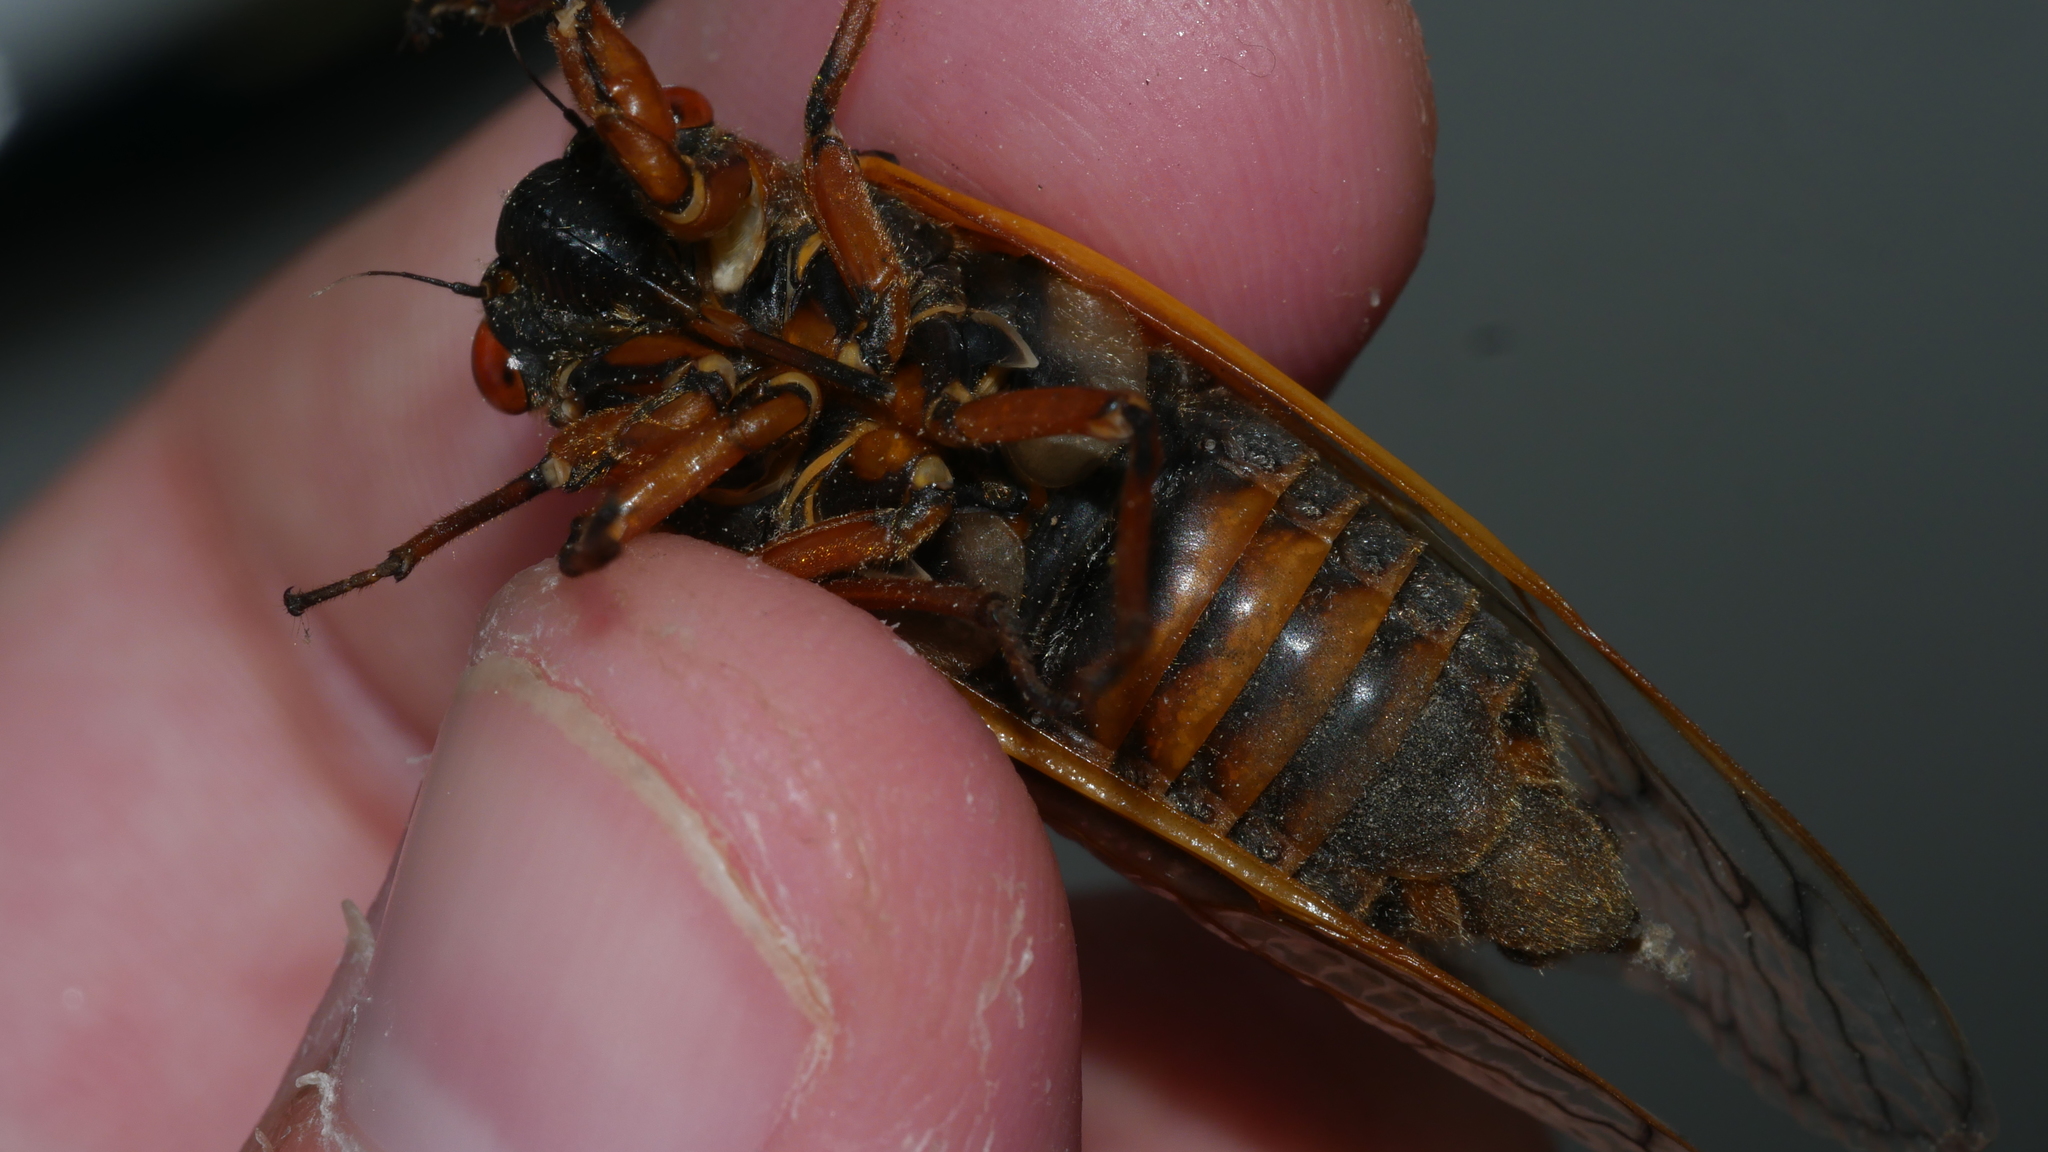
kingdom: Animalia
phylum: Arthropoda
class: Insecta
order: Hemiptera
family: Cicadidae
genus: Magicicada
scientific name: Magicicada septendecim
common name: Periodical cicada
